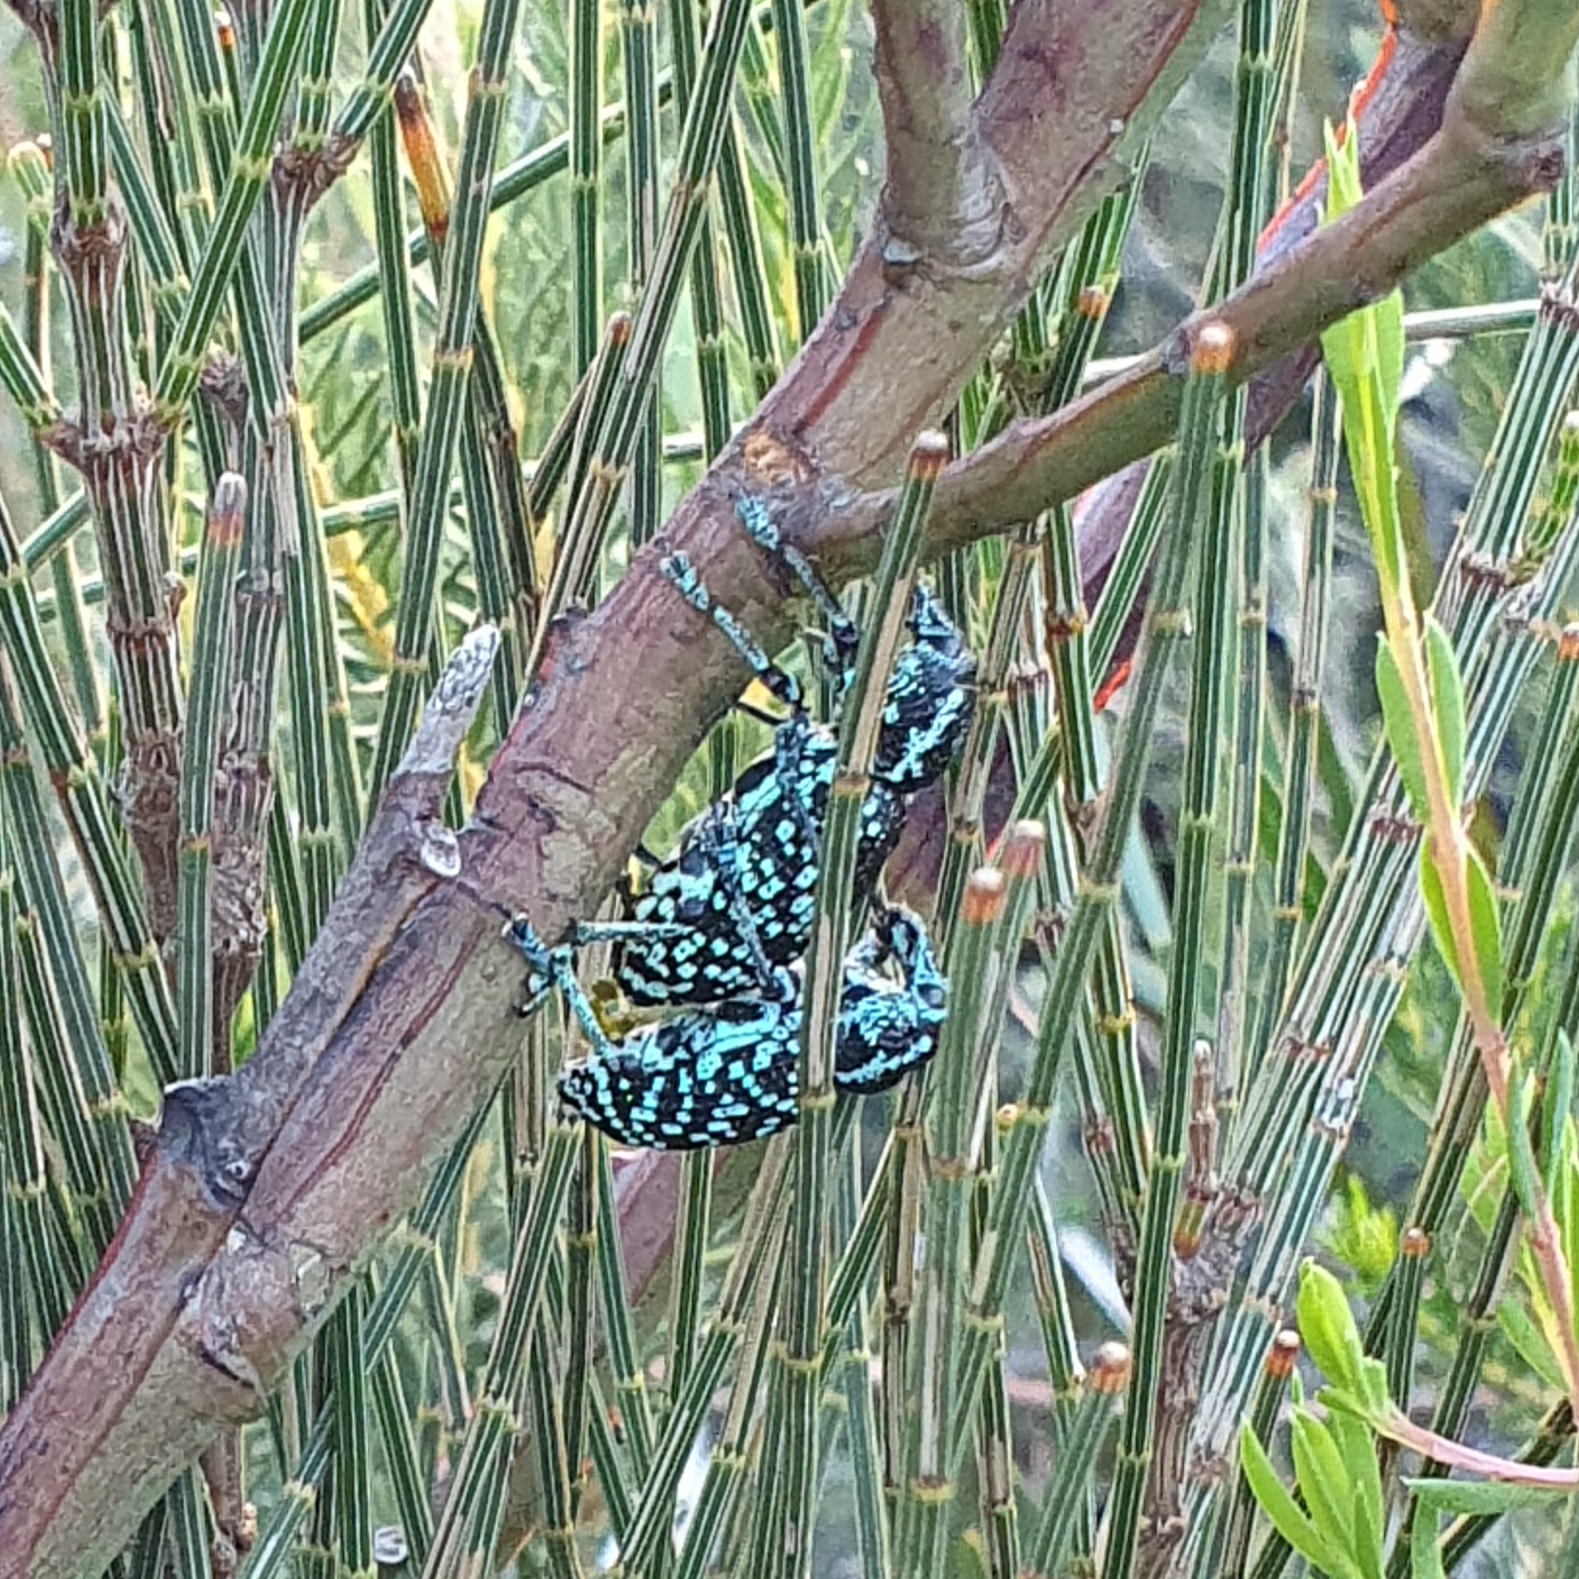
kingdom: Animalia
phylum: Arthropoda
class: Insecta
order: Coleoptera
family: Curculionidae
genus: Chrysolopus
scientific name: Chrysolopus spectabilis
